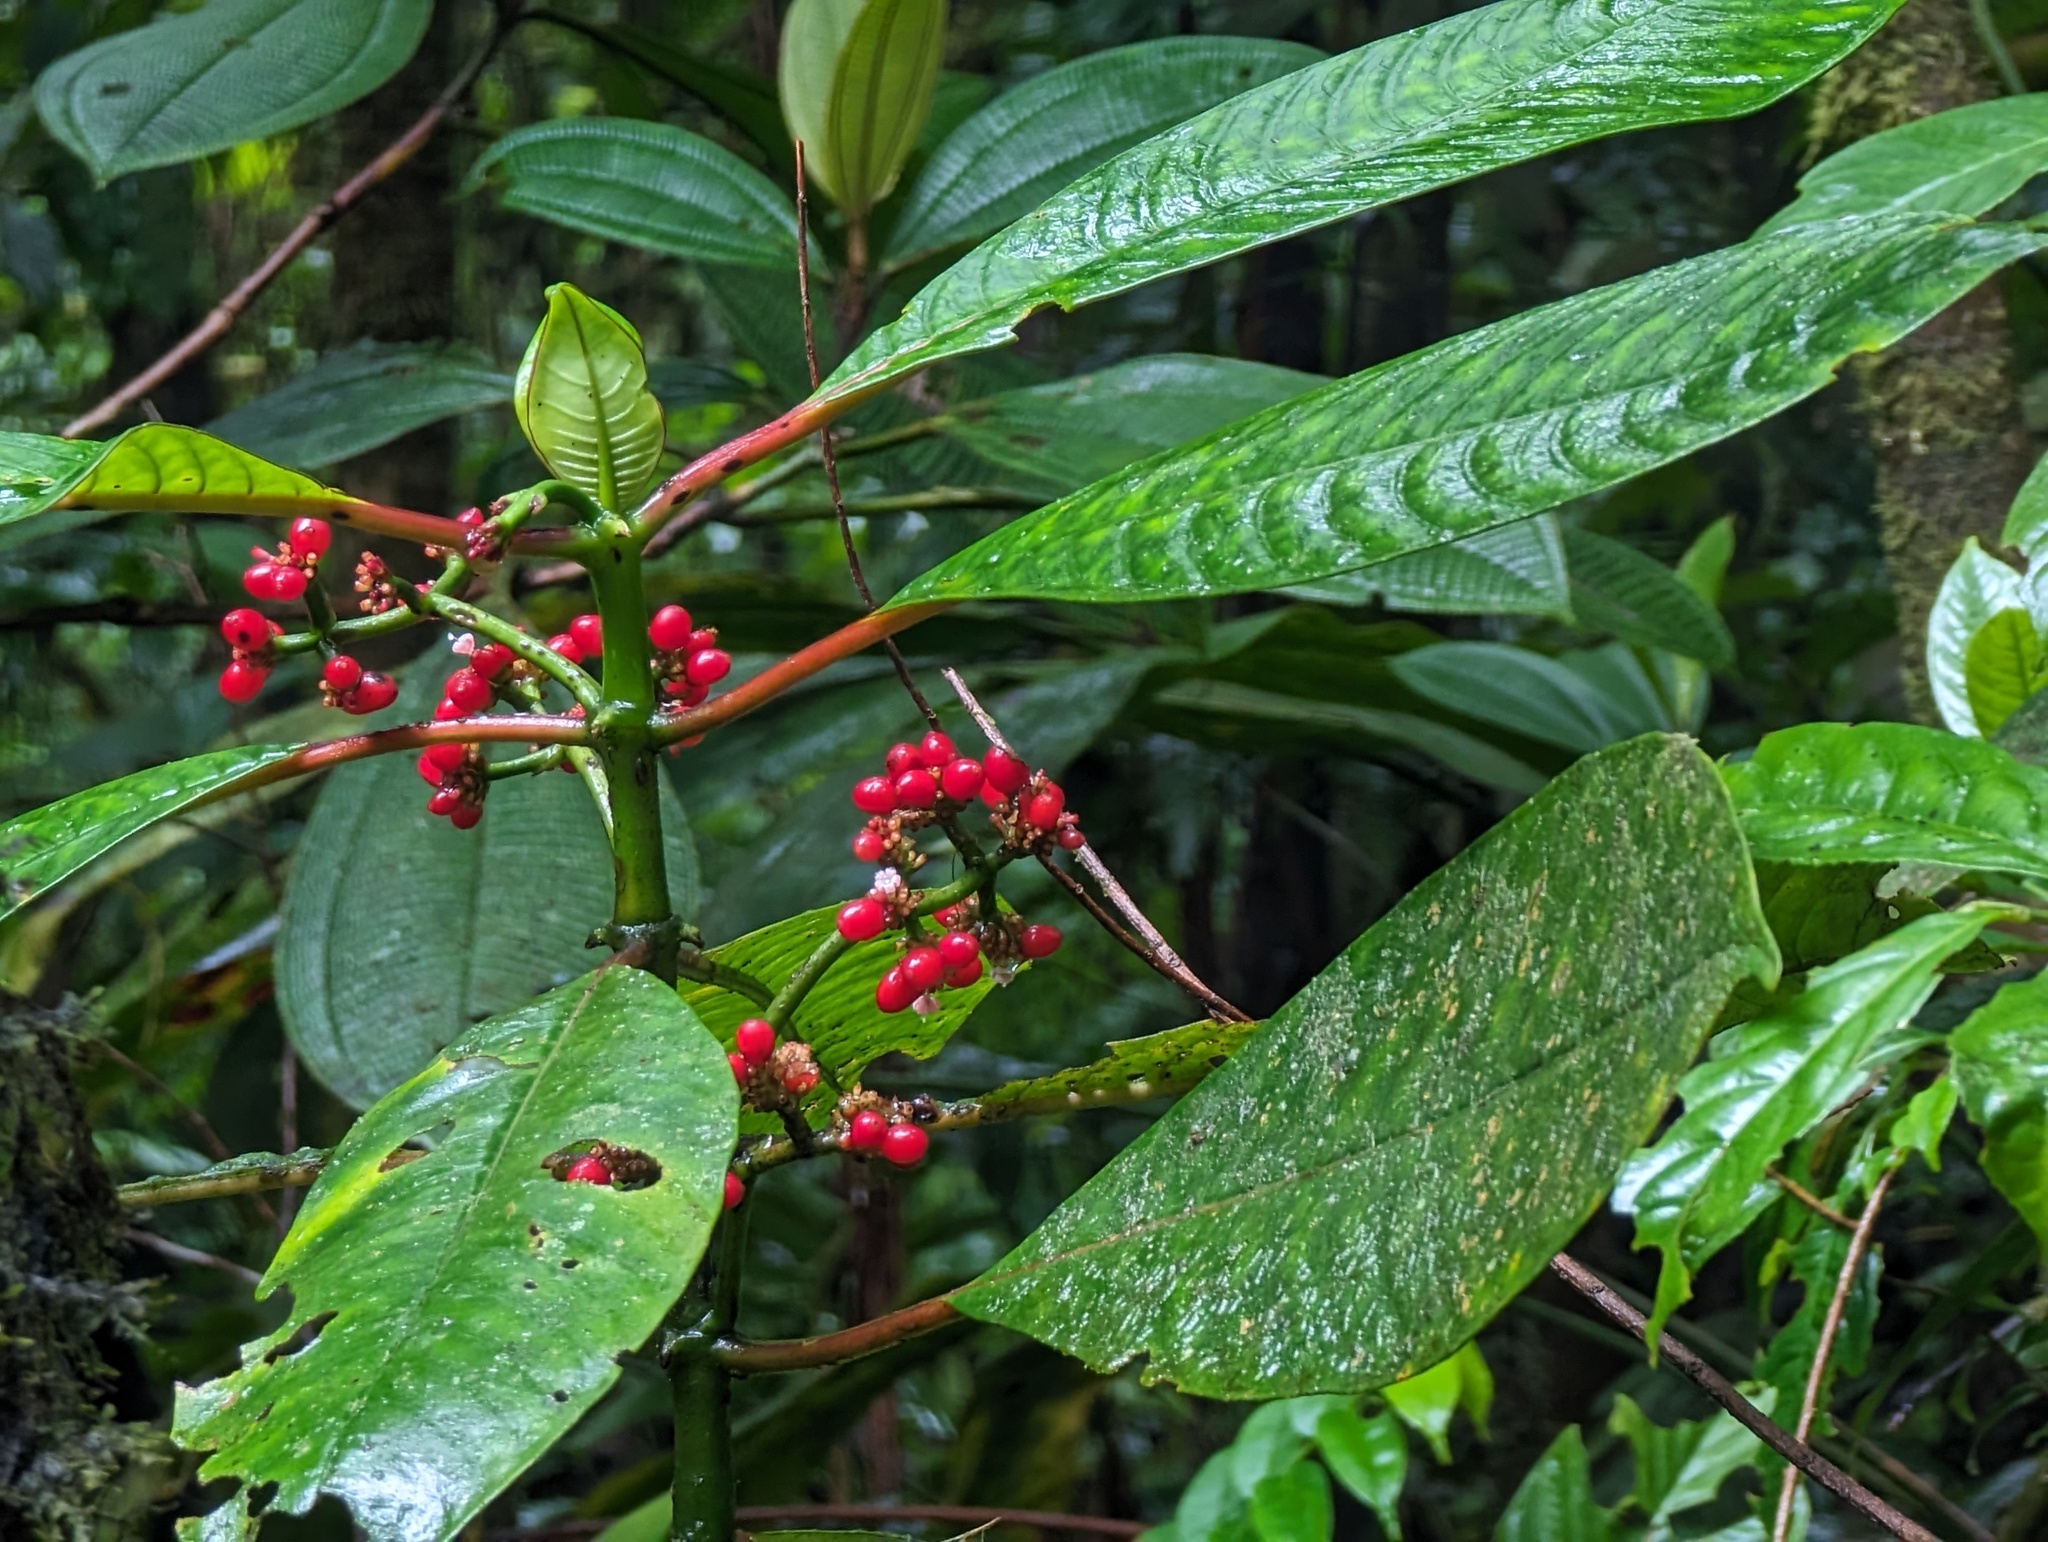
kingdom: Plantae
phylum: Tracheophyta
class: Magnoliopsida
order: Gentianales
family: Rubiaceae
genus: Notopleura
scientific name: Notopleura uliginosa
